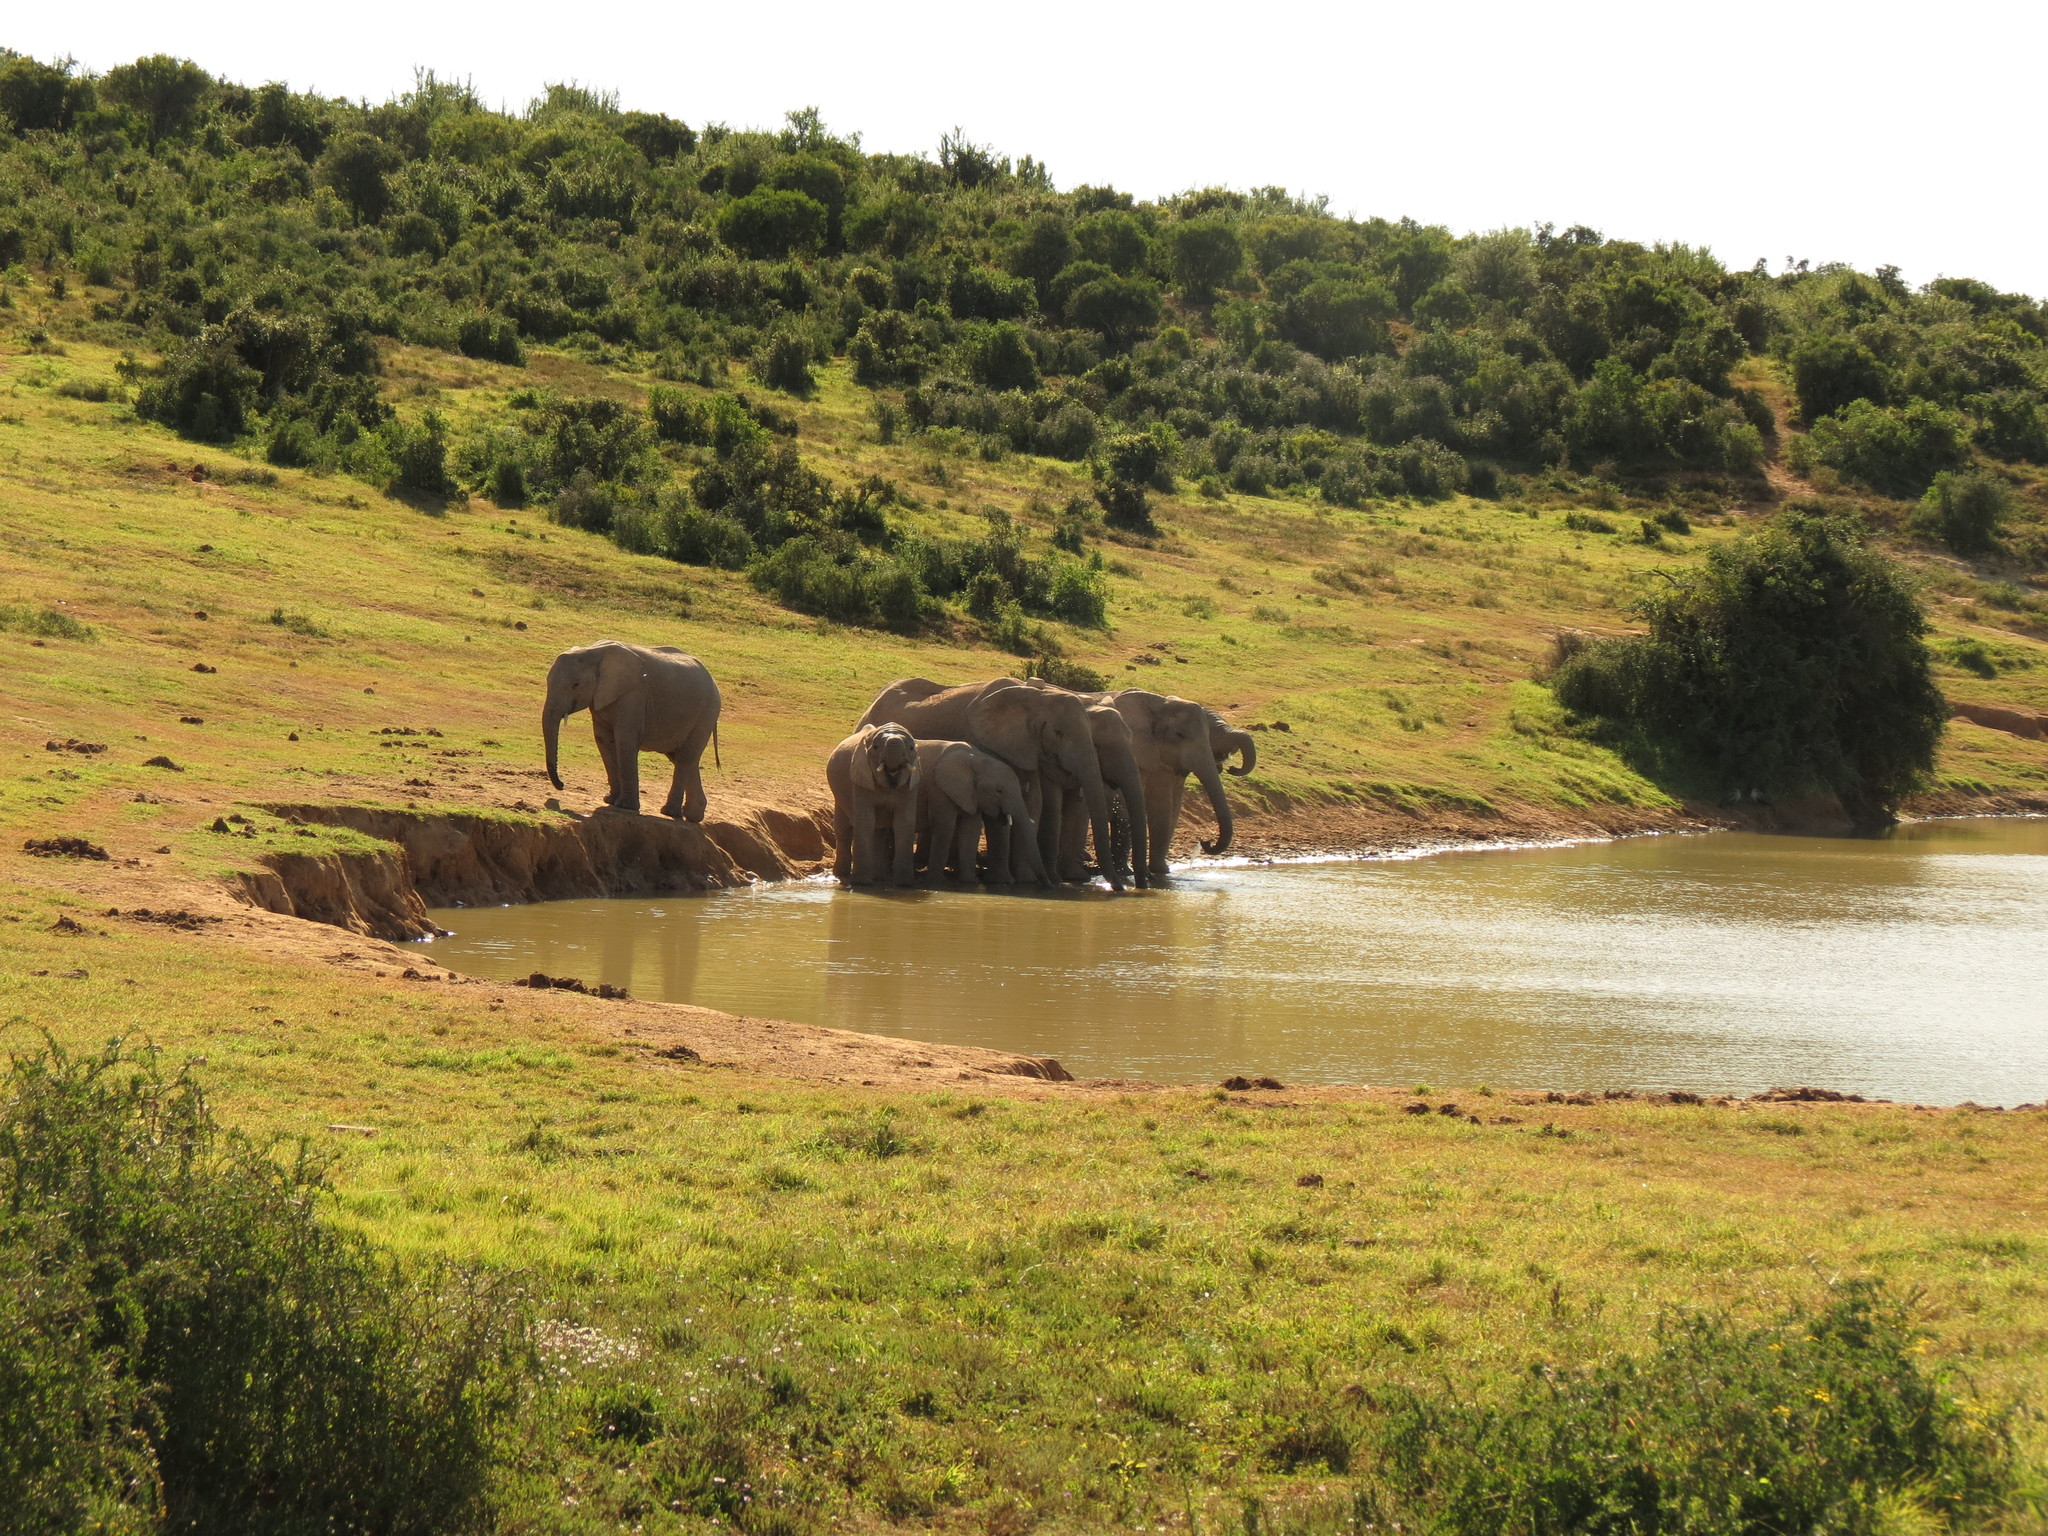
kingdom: Animalia
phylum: Chordata
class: Mammalia
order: Proboscidea
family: Elephantidae
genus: Loxodonta
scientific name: Loxodonta africana
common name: African elephant
